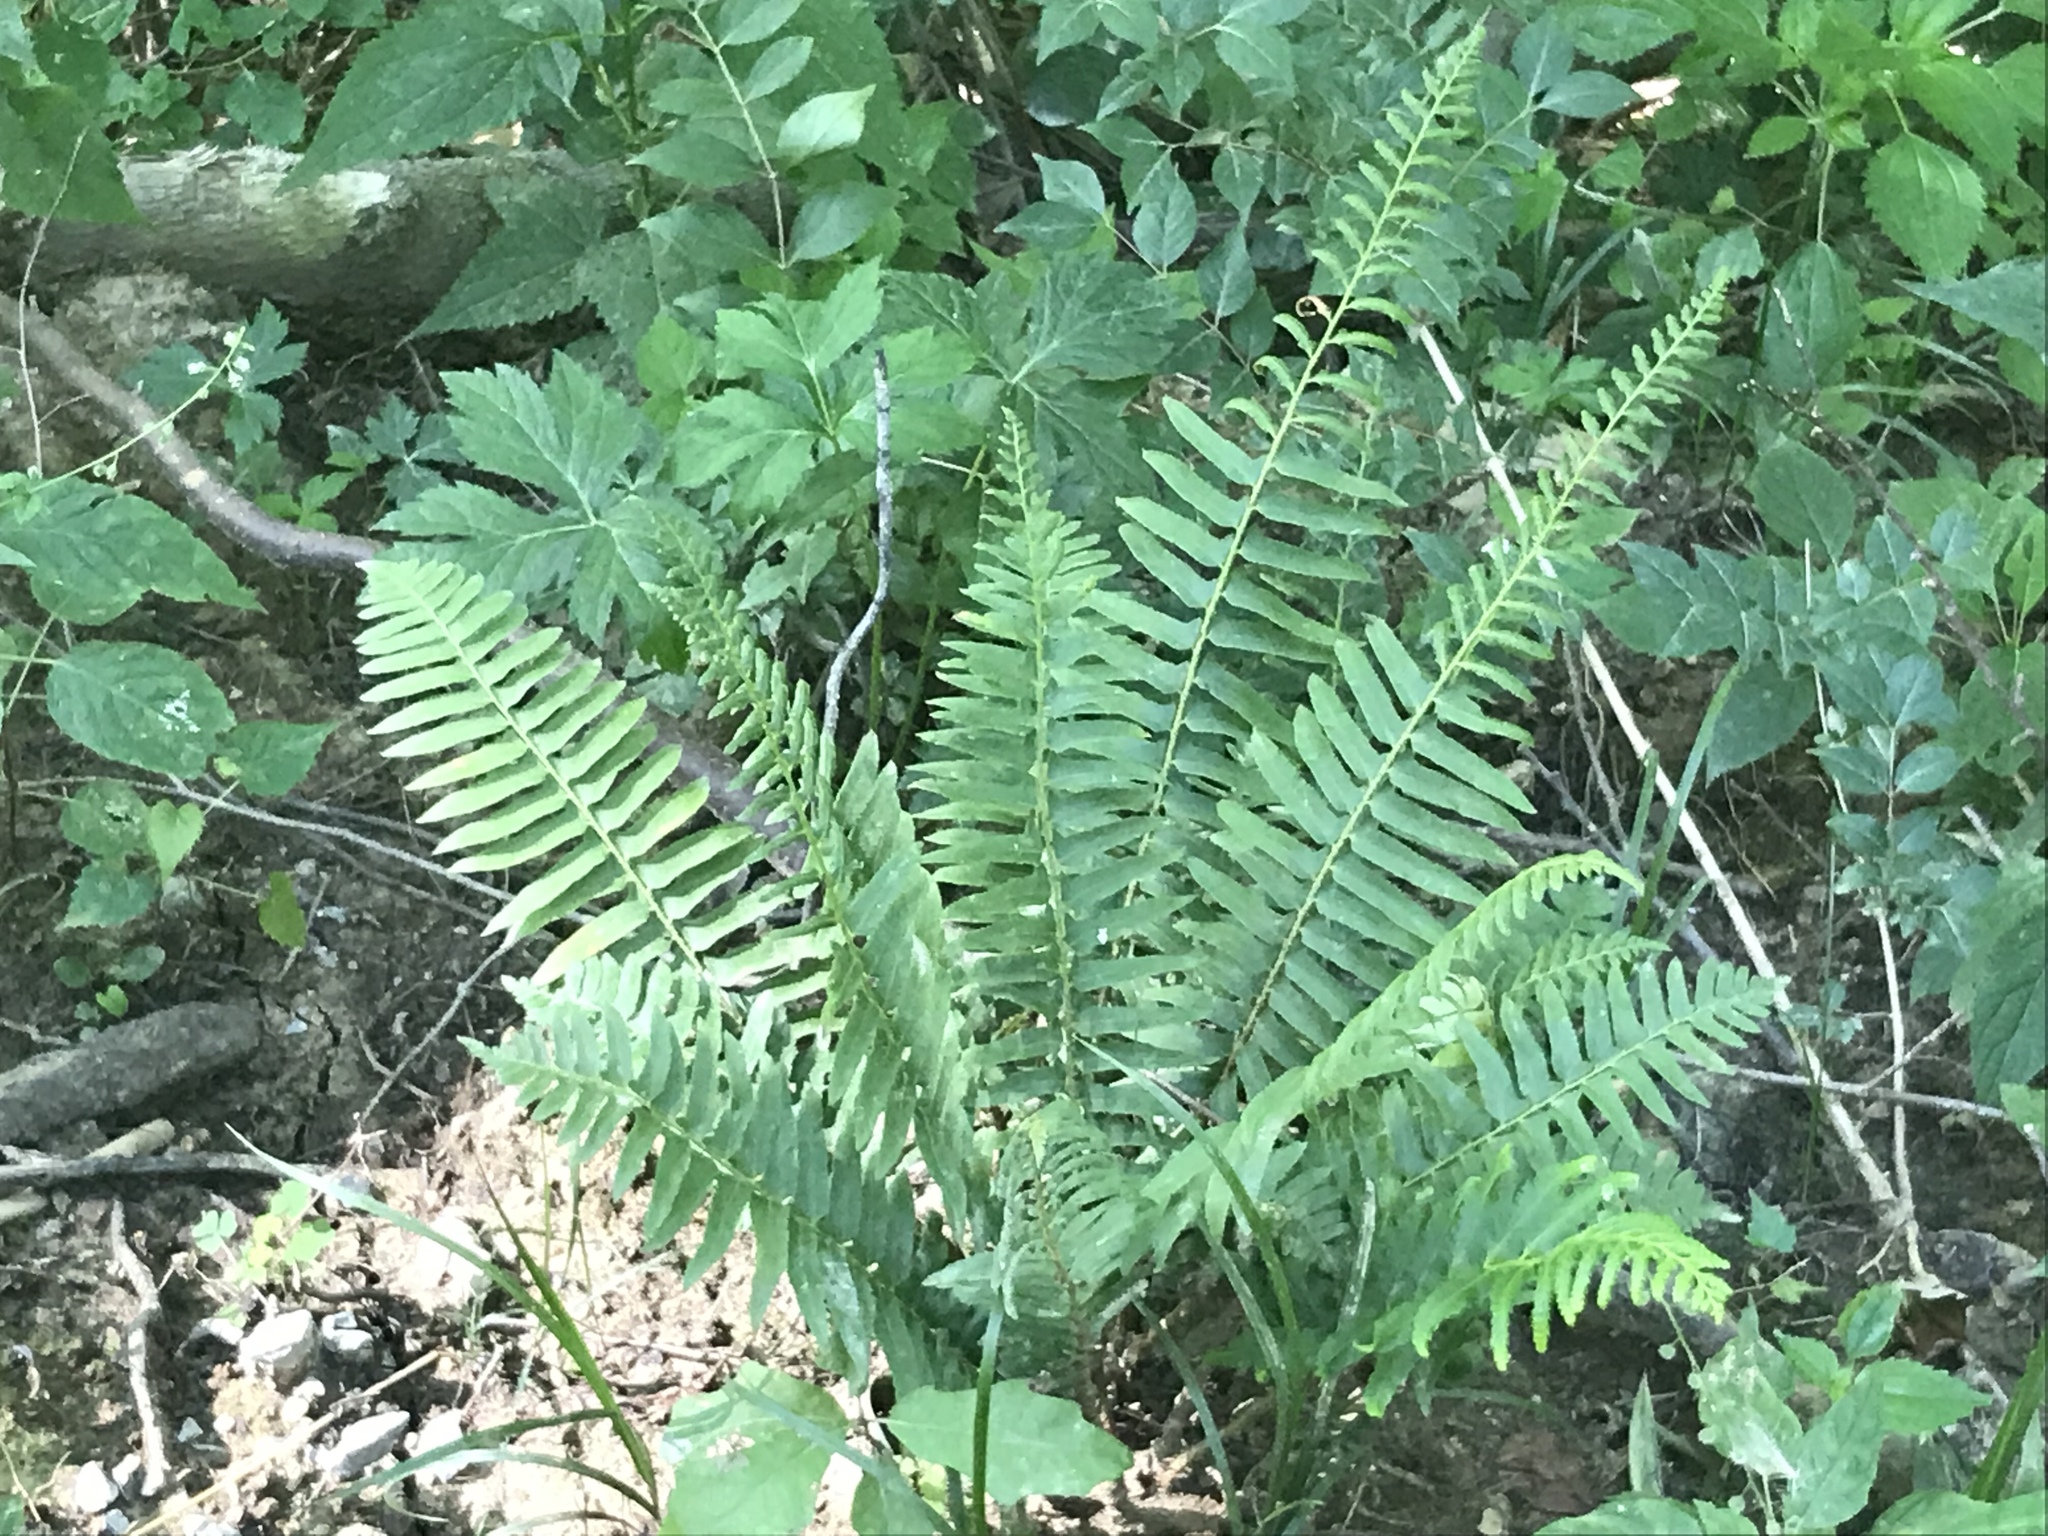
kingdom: Plantae
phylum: Tracheophyta
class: Polypodiopsida
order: Polypodiales
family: Dryopteridaceae
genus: Polystichum
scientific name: Polystichum acrostichoides
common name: Christmas fern
